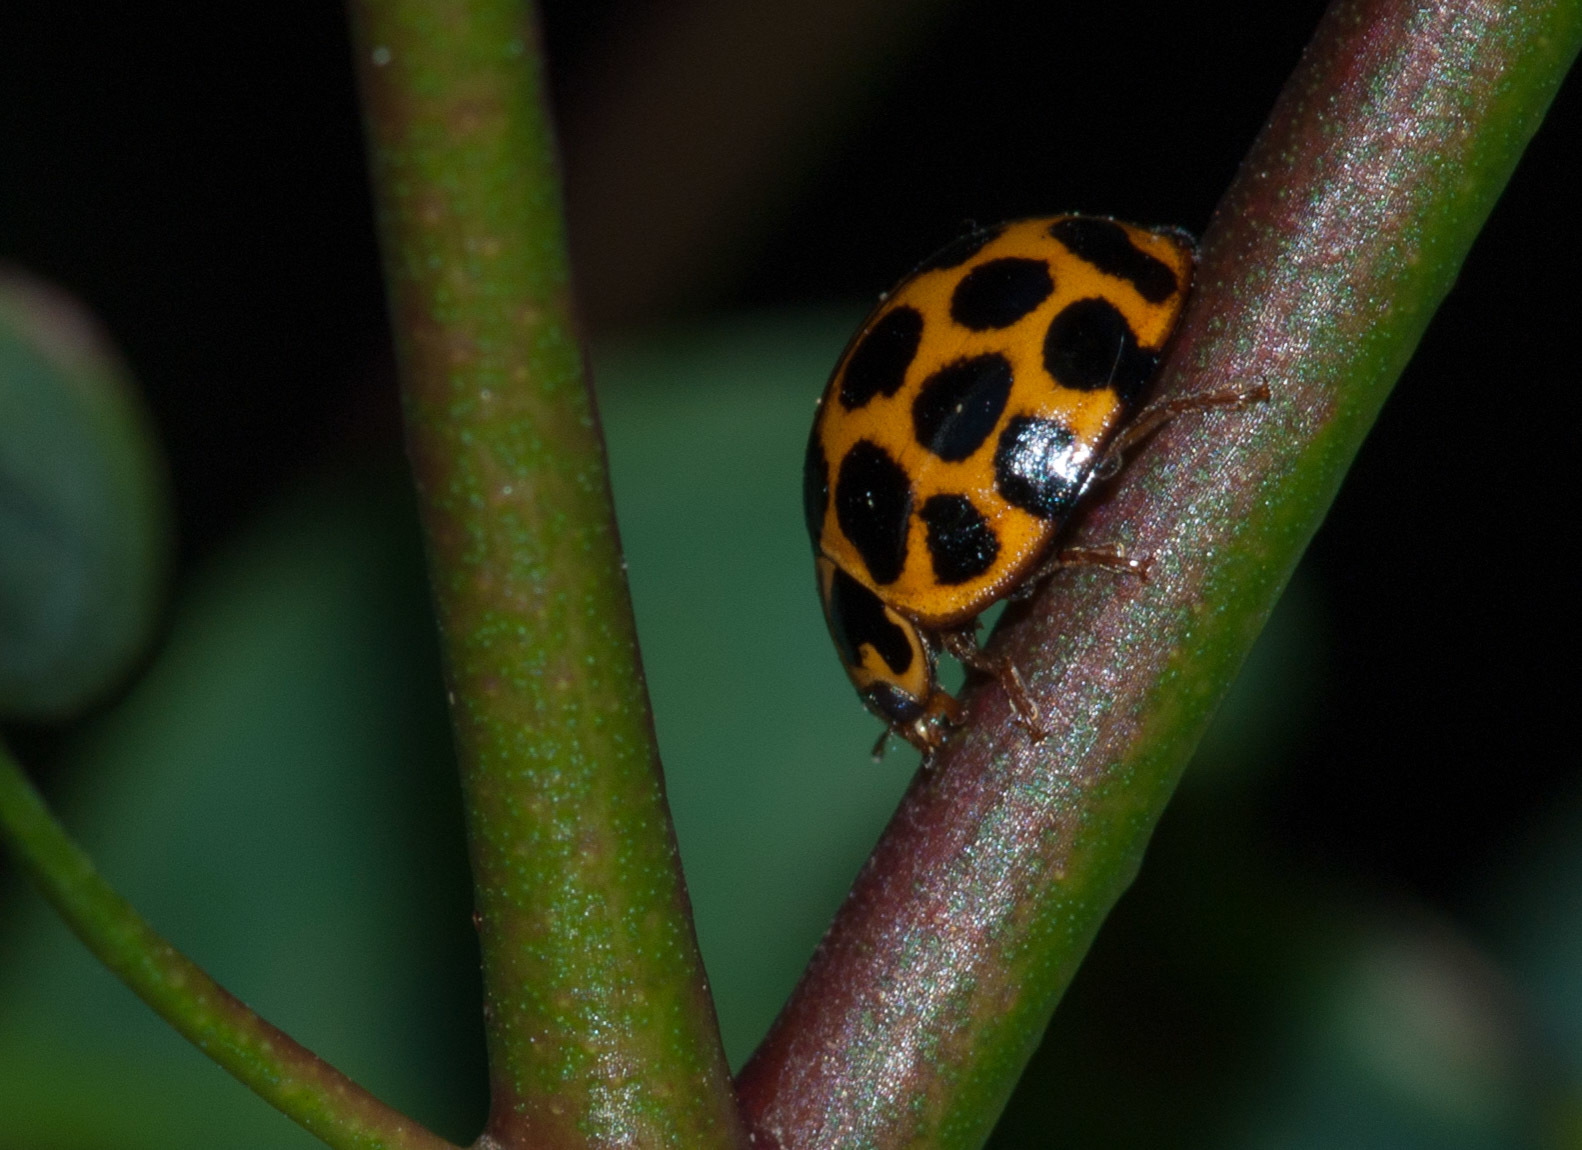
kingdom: Animalia
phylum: Arthropoda
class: Insecta
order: Coleoptera
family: Coccinellidae
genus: Harmonia
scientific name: Harmonia conformis
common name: Common spotted ladybird beetle
